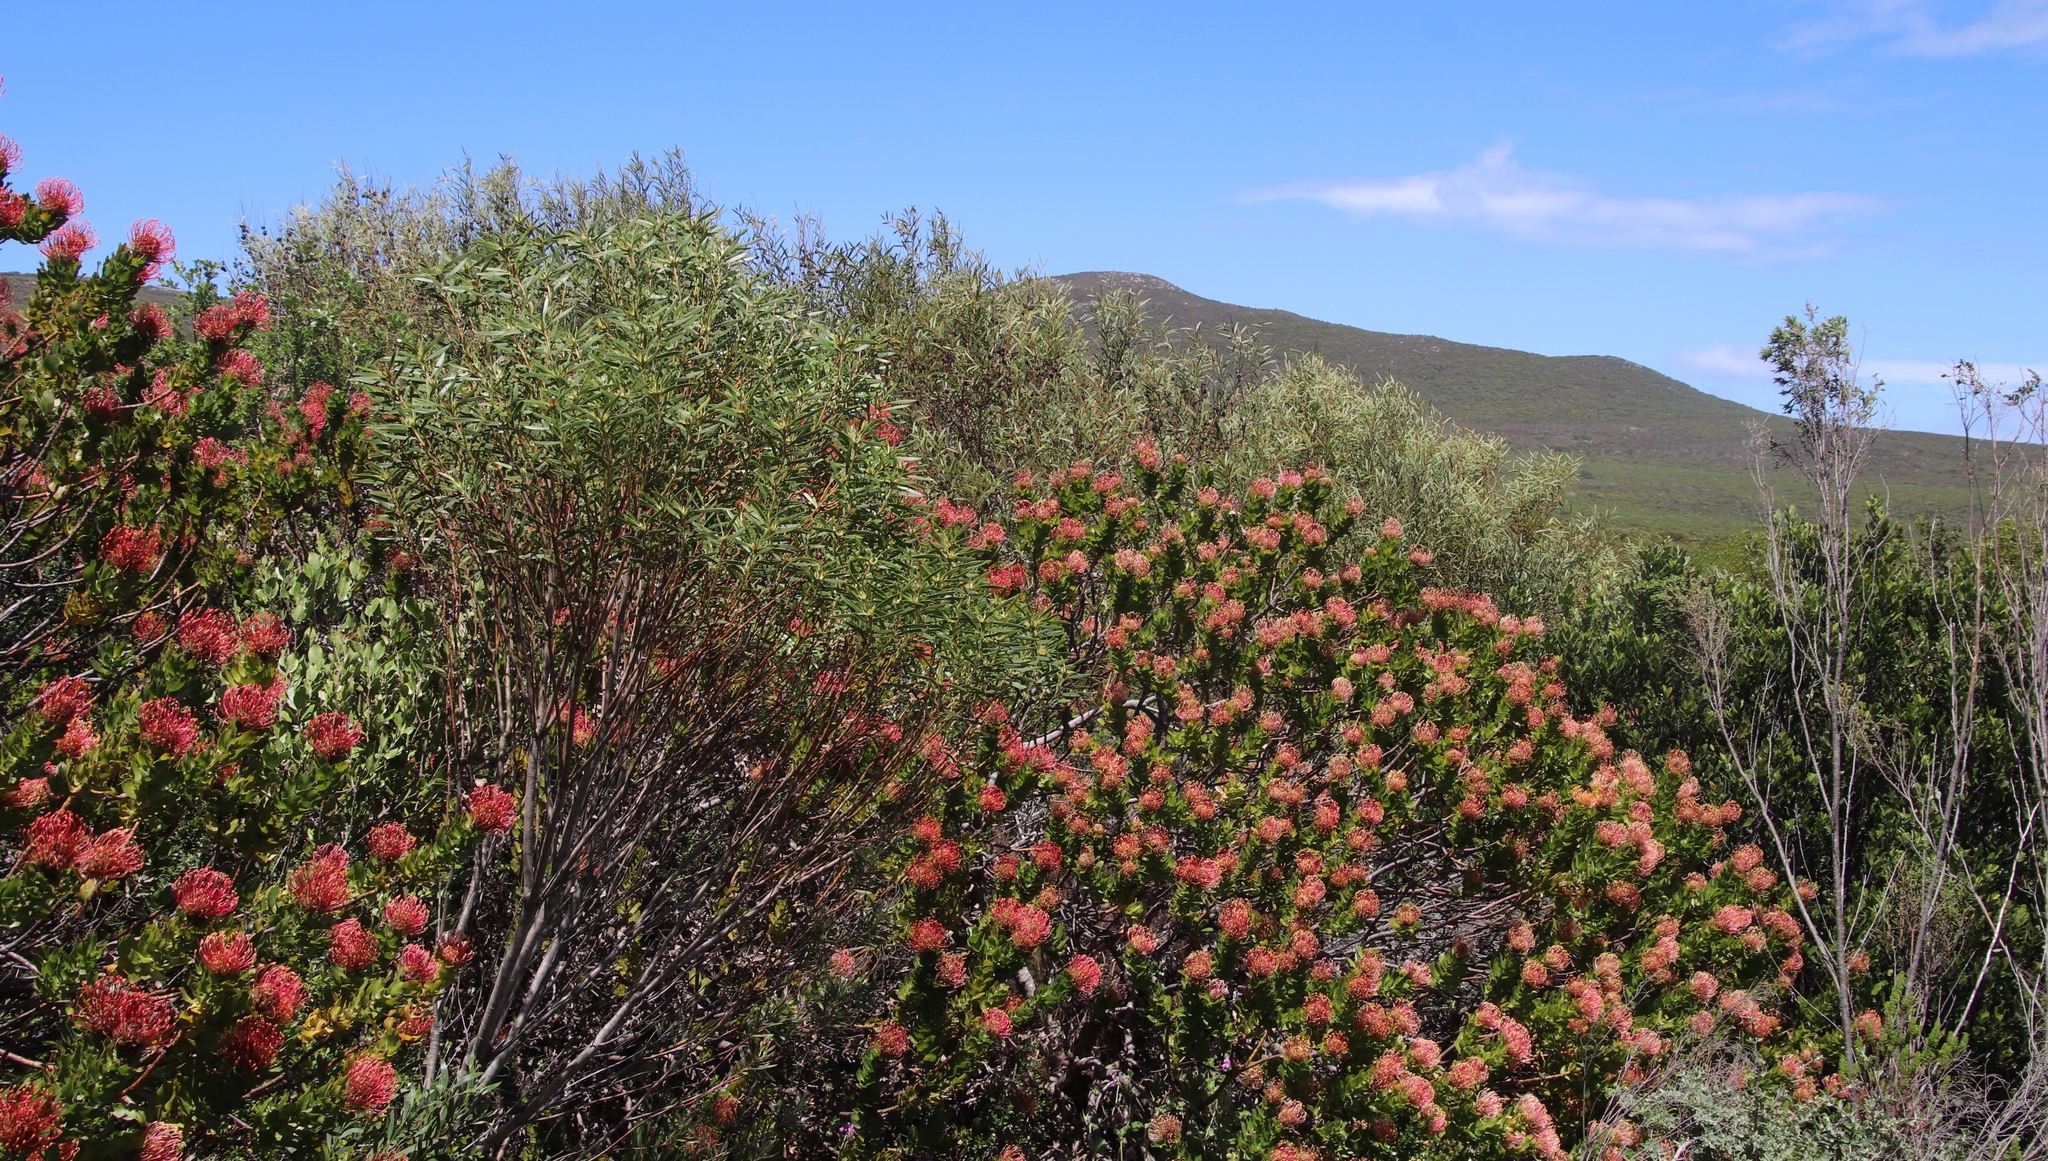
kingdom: Plantae
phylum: Tracheophyta
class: Magnoliopsida
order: Proteales
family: Proteaceae
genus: Leucospermum
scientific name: Leucospermum patersonii
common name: False tree pincushion
